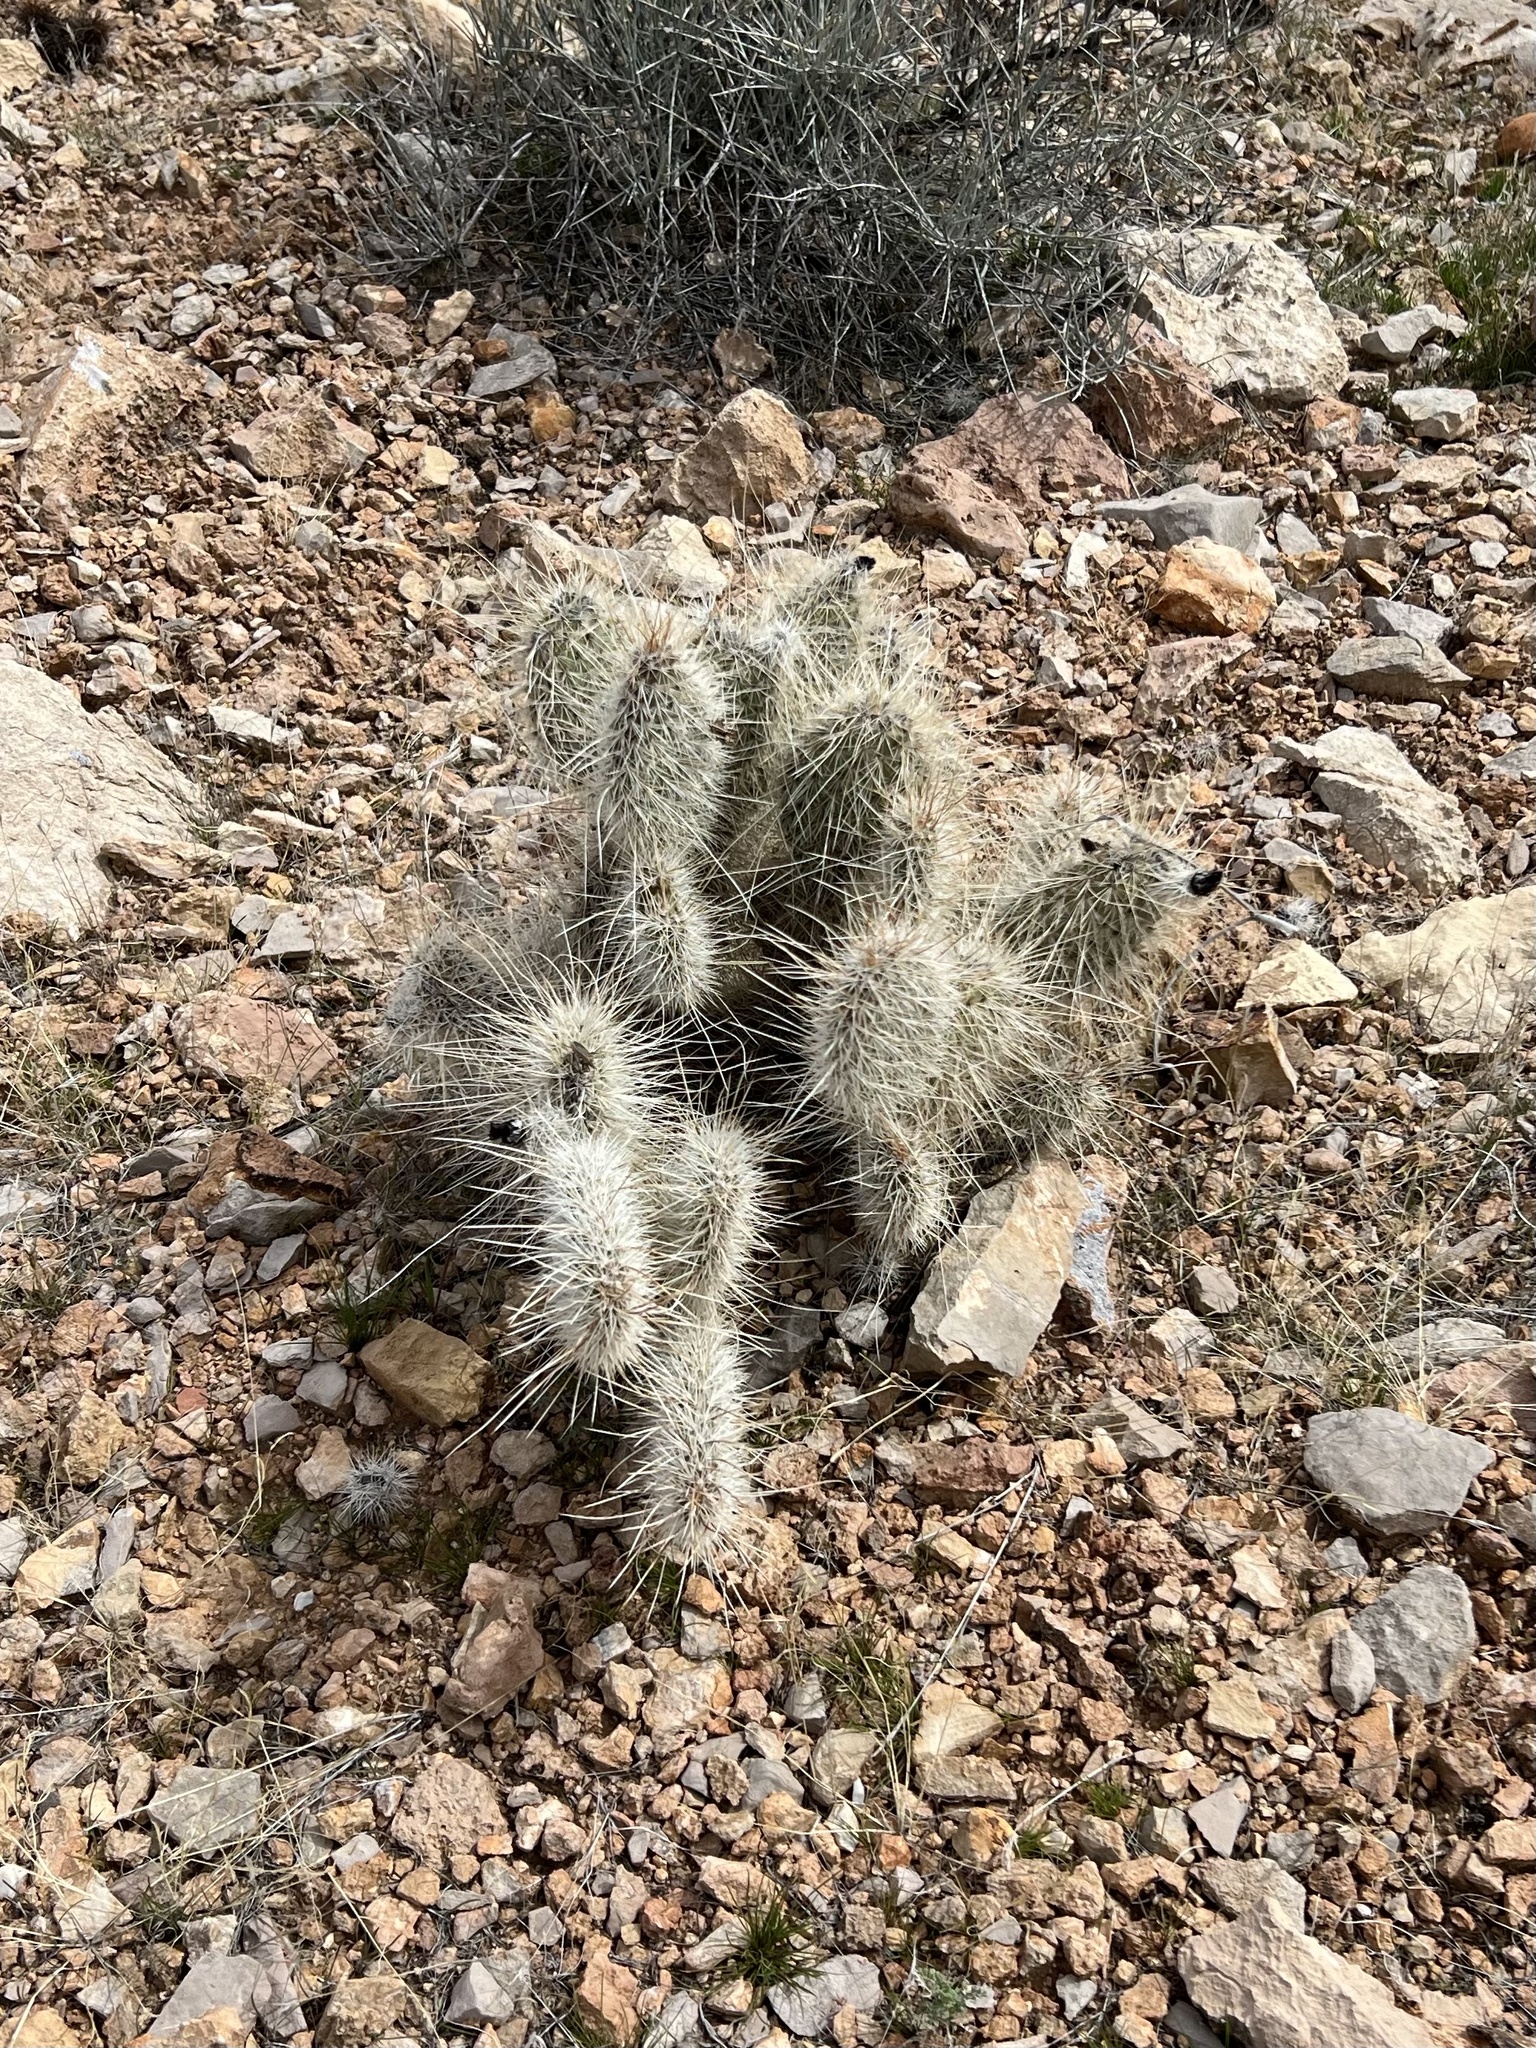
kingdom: Plantae
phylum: Tracheophyta
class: Magnoliopsida
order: Caryophyllales
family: Cactaceae
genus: Opuntia
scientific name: Opuntia polyacantha
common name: Plains prickly-pear
